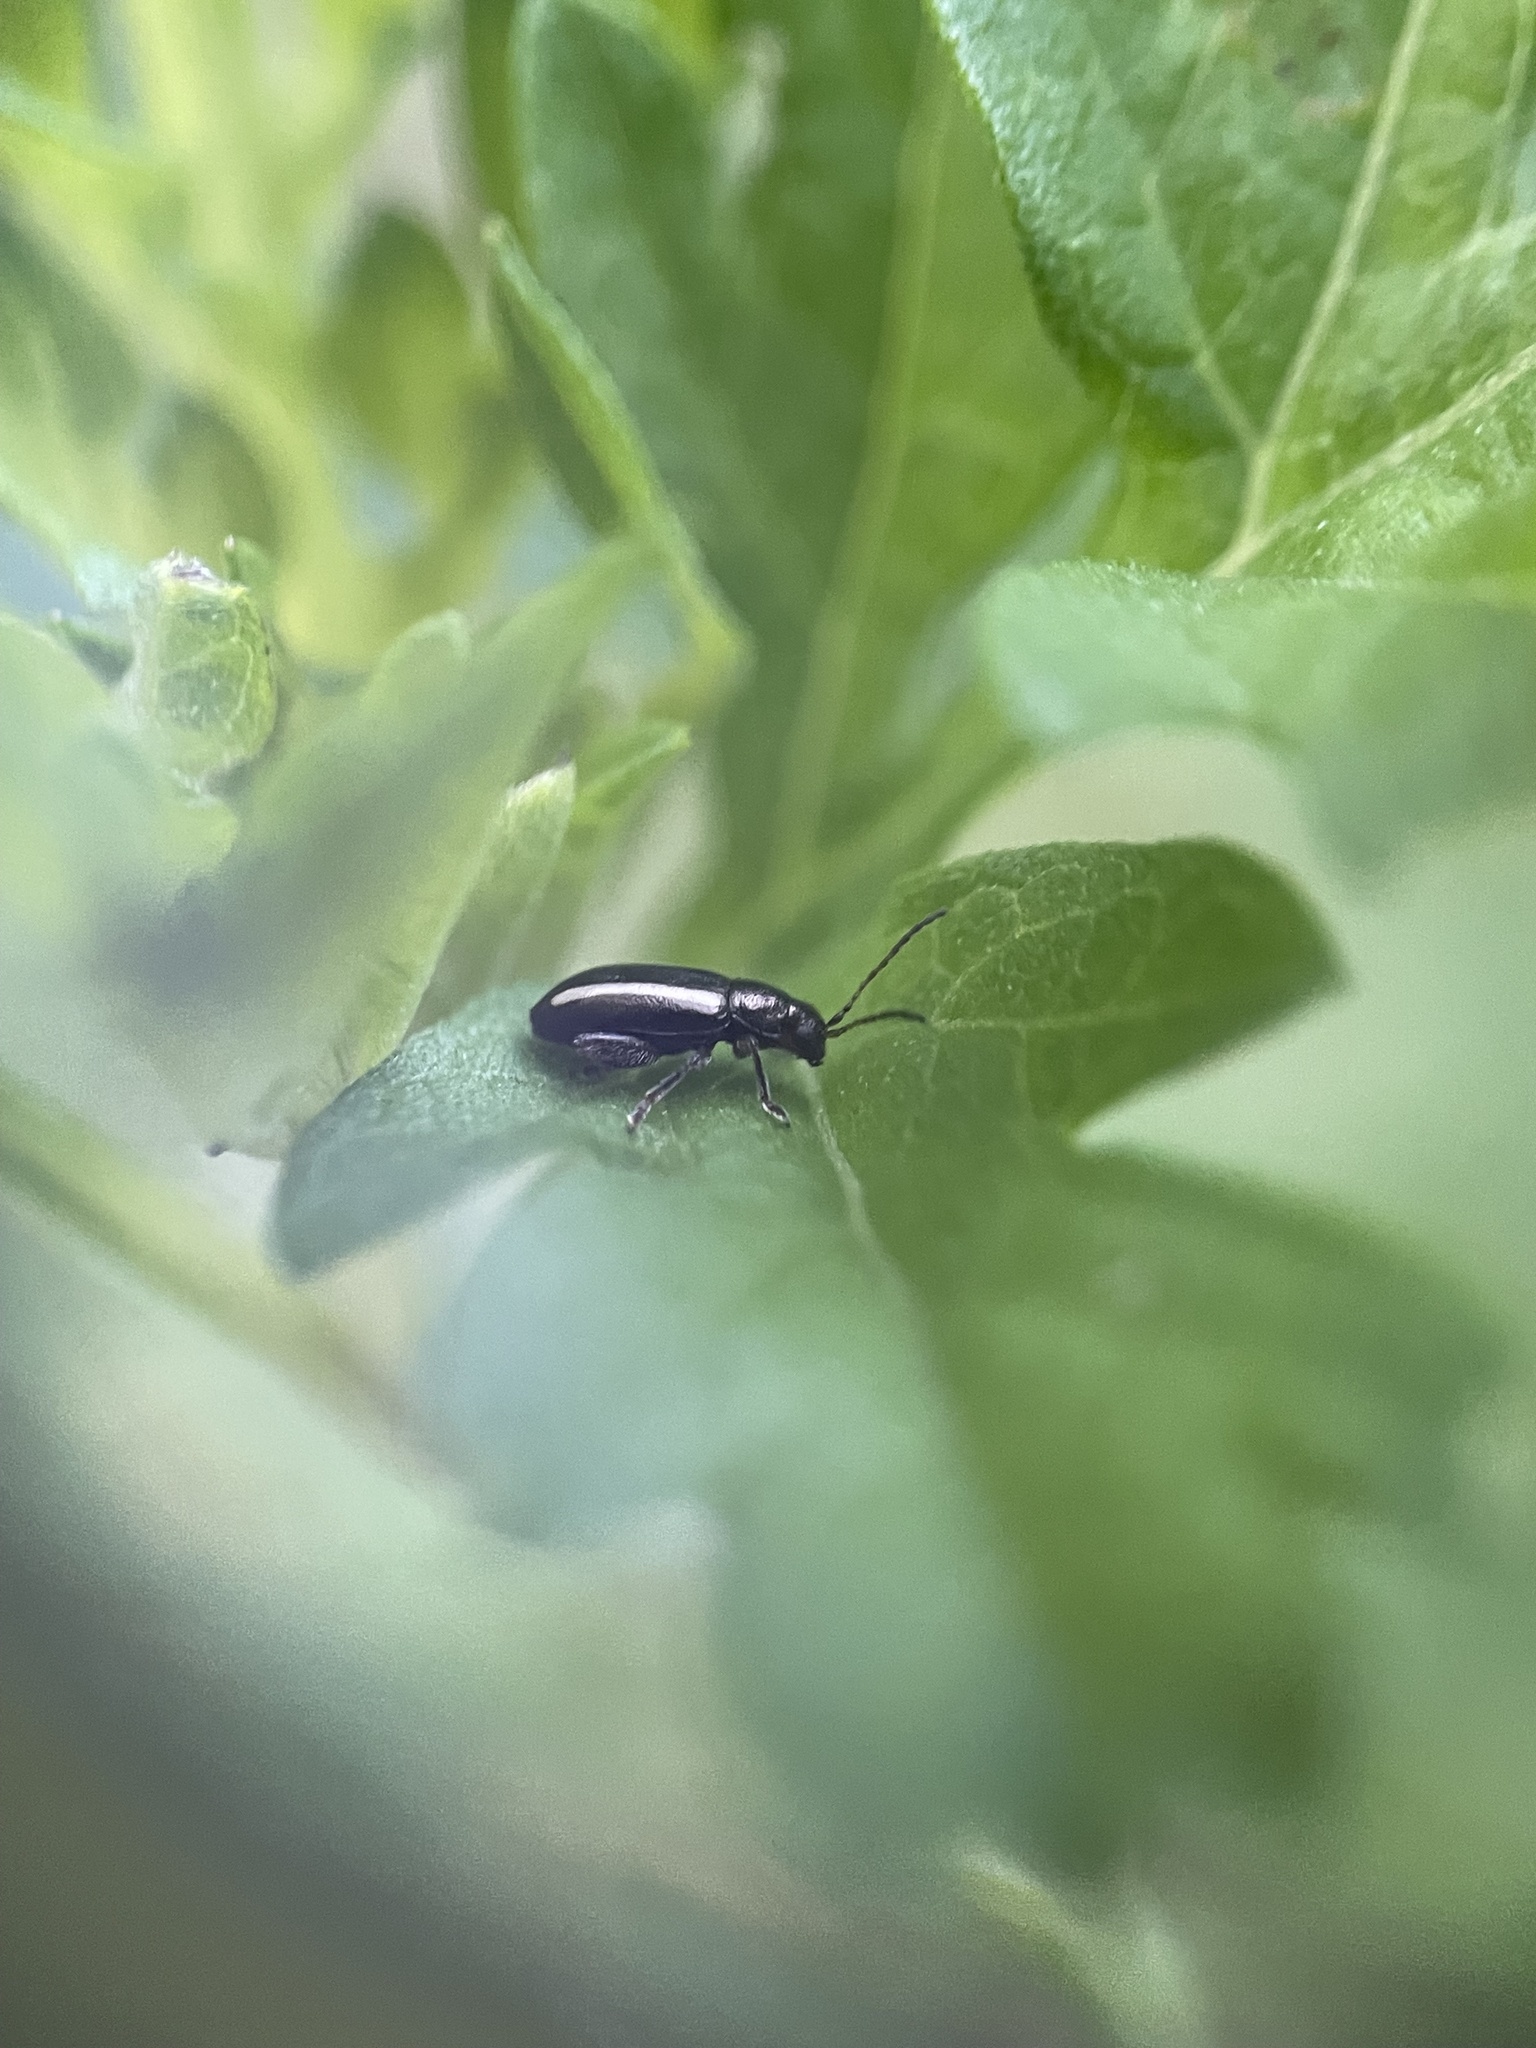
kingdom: Animalia
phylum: Arthropoda
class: Insecta
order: Coleoptera
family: Chrysomelidae
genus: Systena
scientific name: Systena elongata
